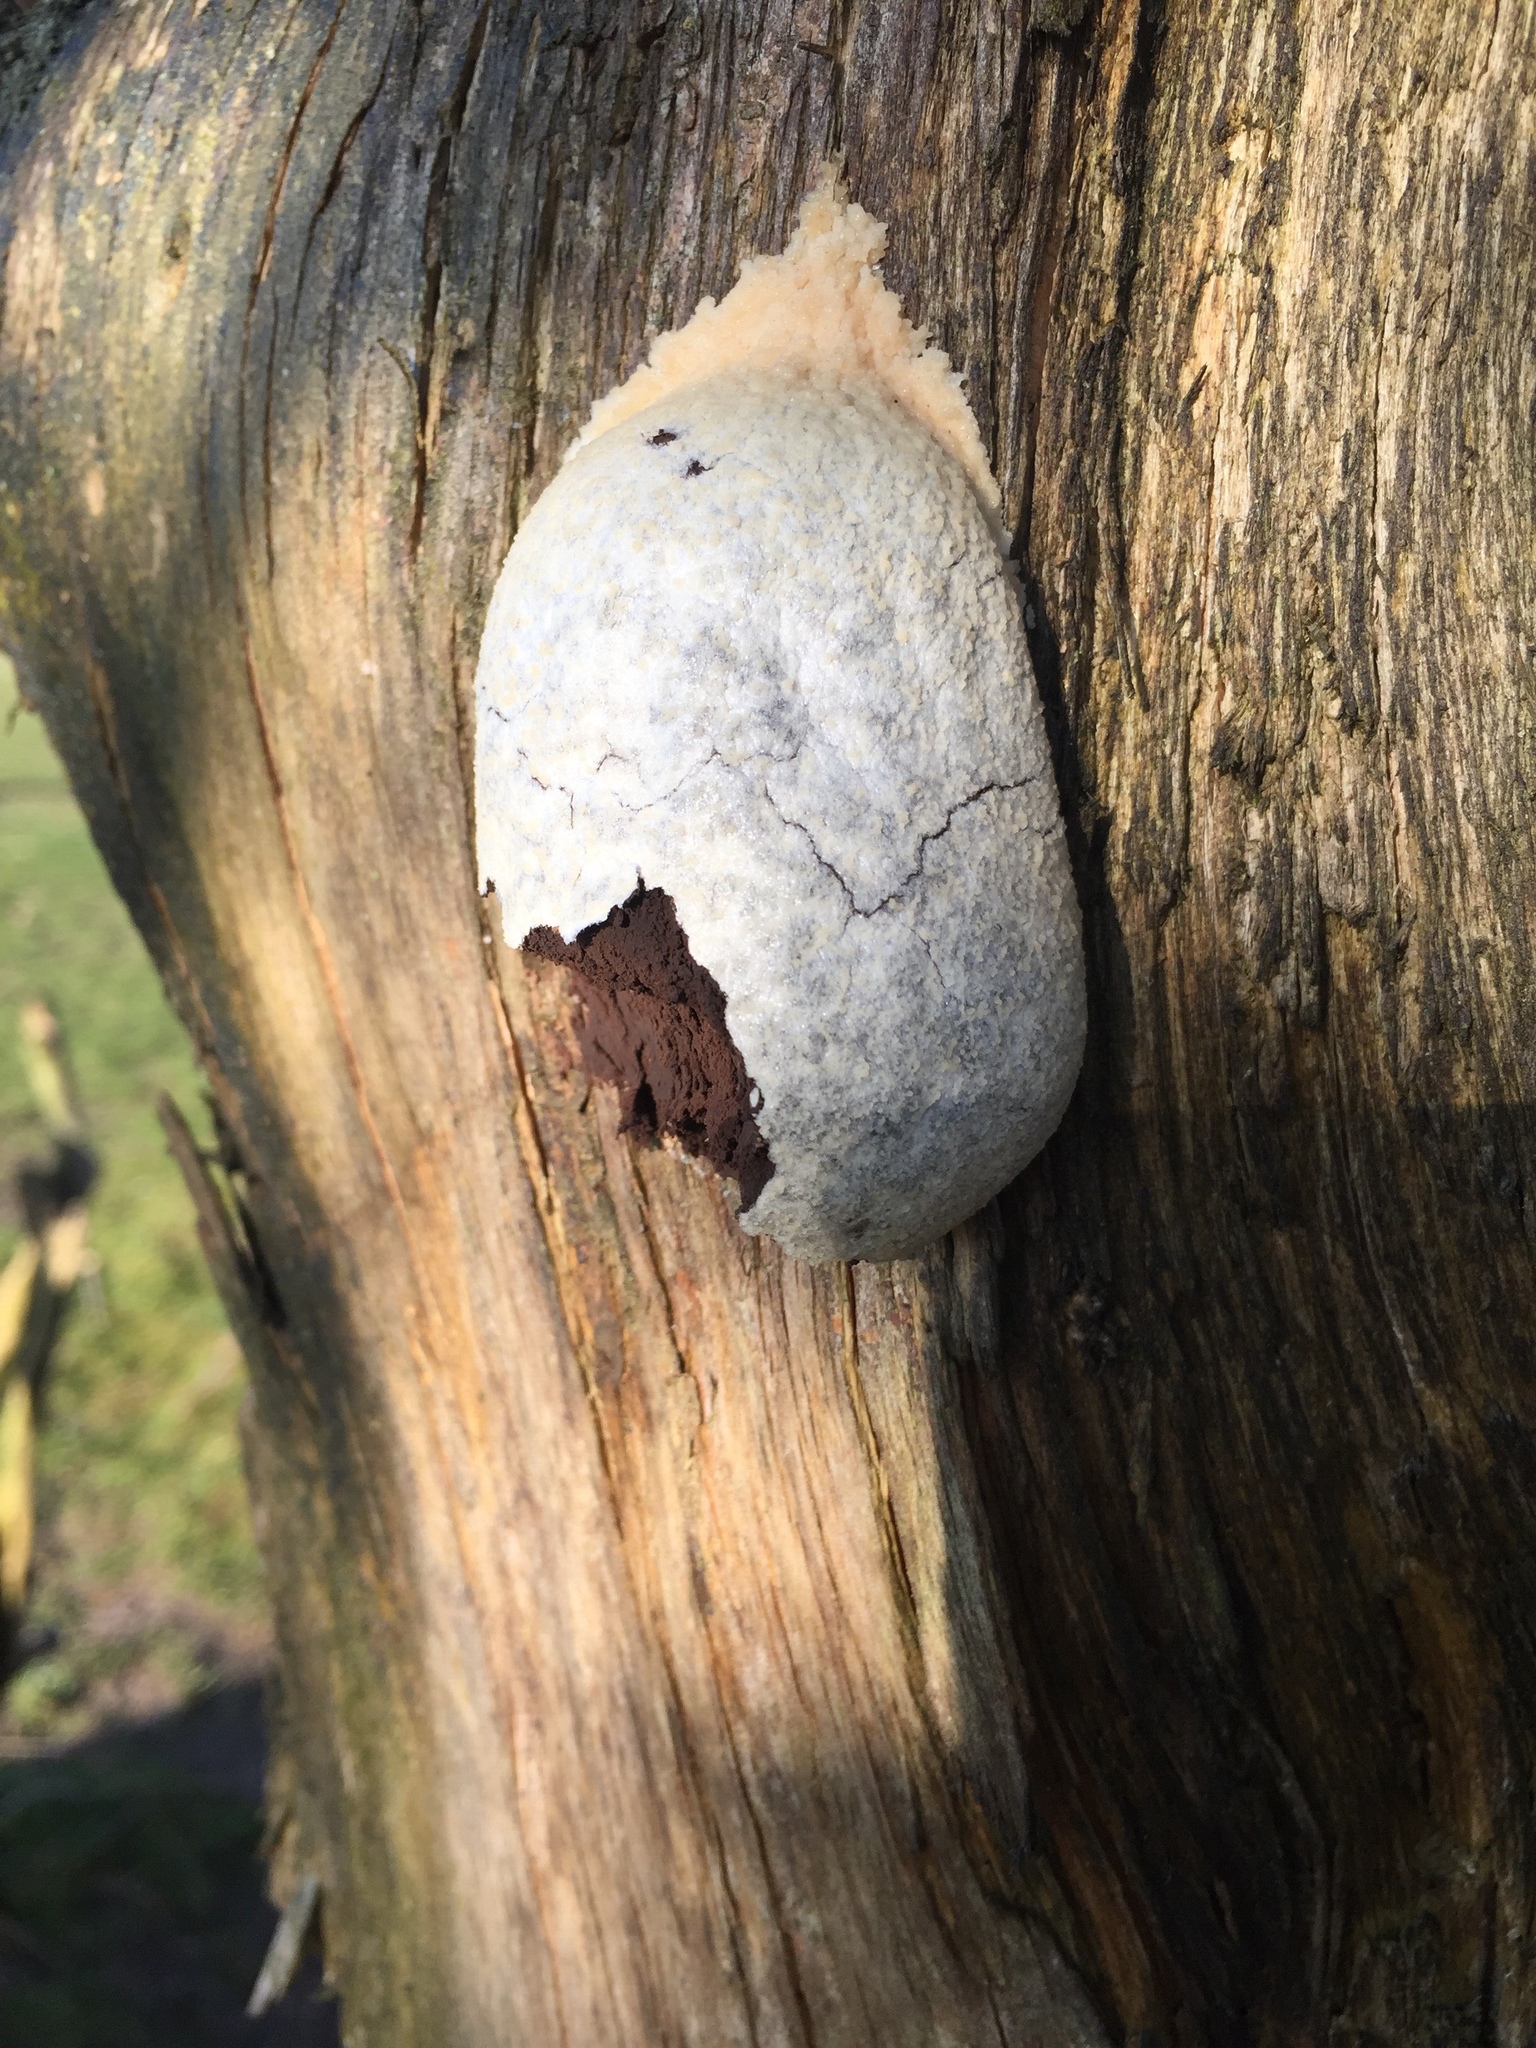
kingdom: Protozoa
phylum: Mycetozoa
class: Myxomycetes
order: Cribrariales
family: Tubiferaceae
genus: Reticularia
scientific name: Reticularia lycoperdon
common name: False puffball
